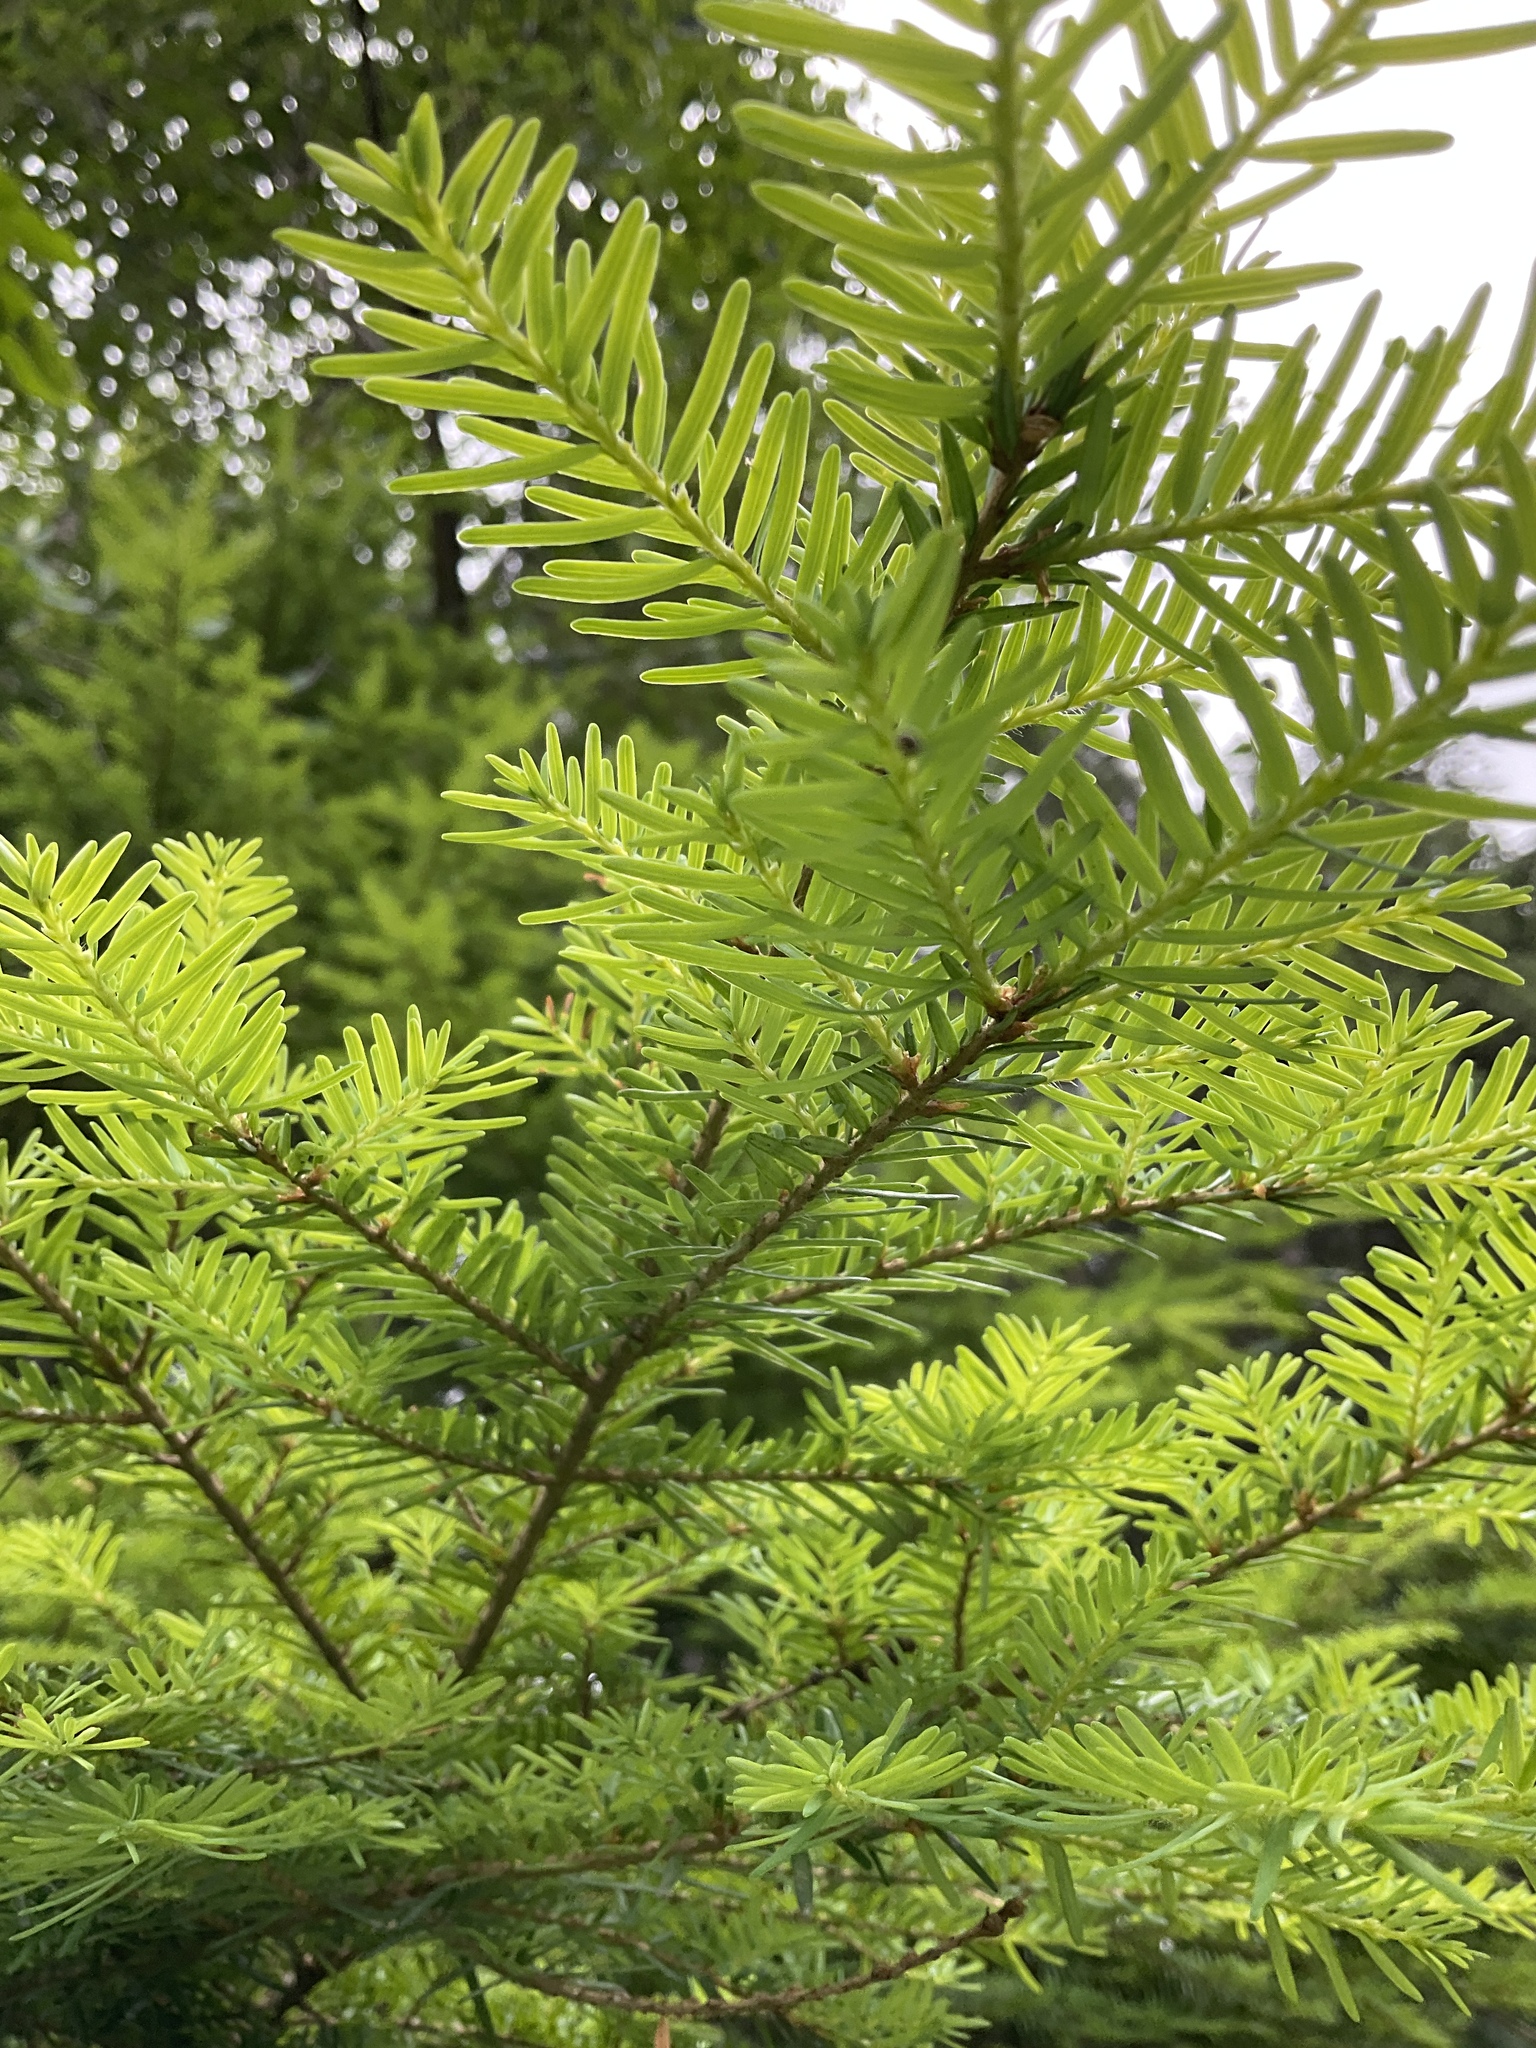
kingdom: Plantae
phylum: Tracheophyta
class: Pinopsida
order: Pinales
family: Pinaceae
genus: Tsuga
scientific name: Tsuga heterophylla
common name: Western hemlock
